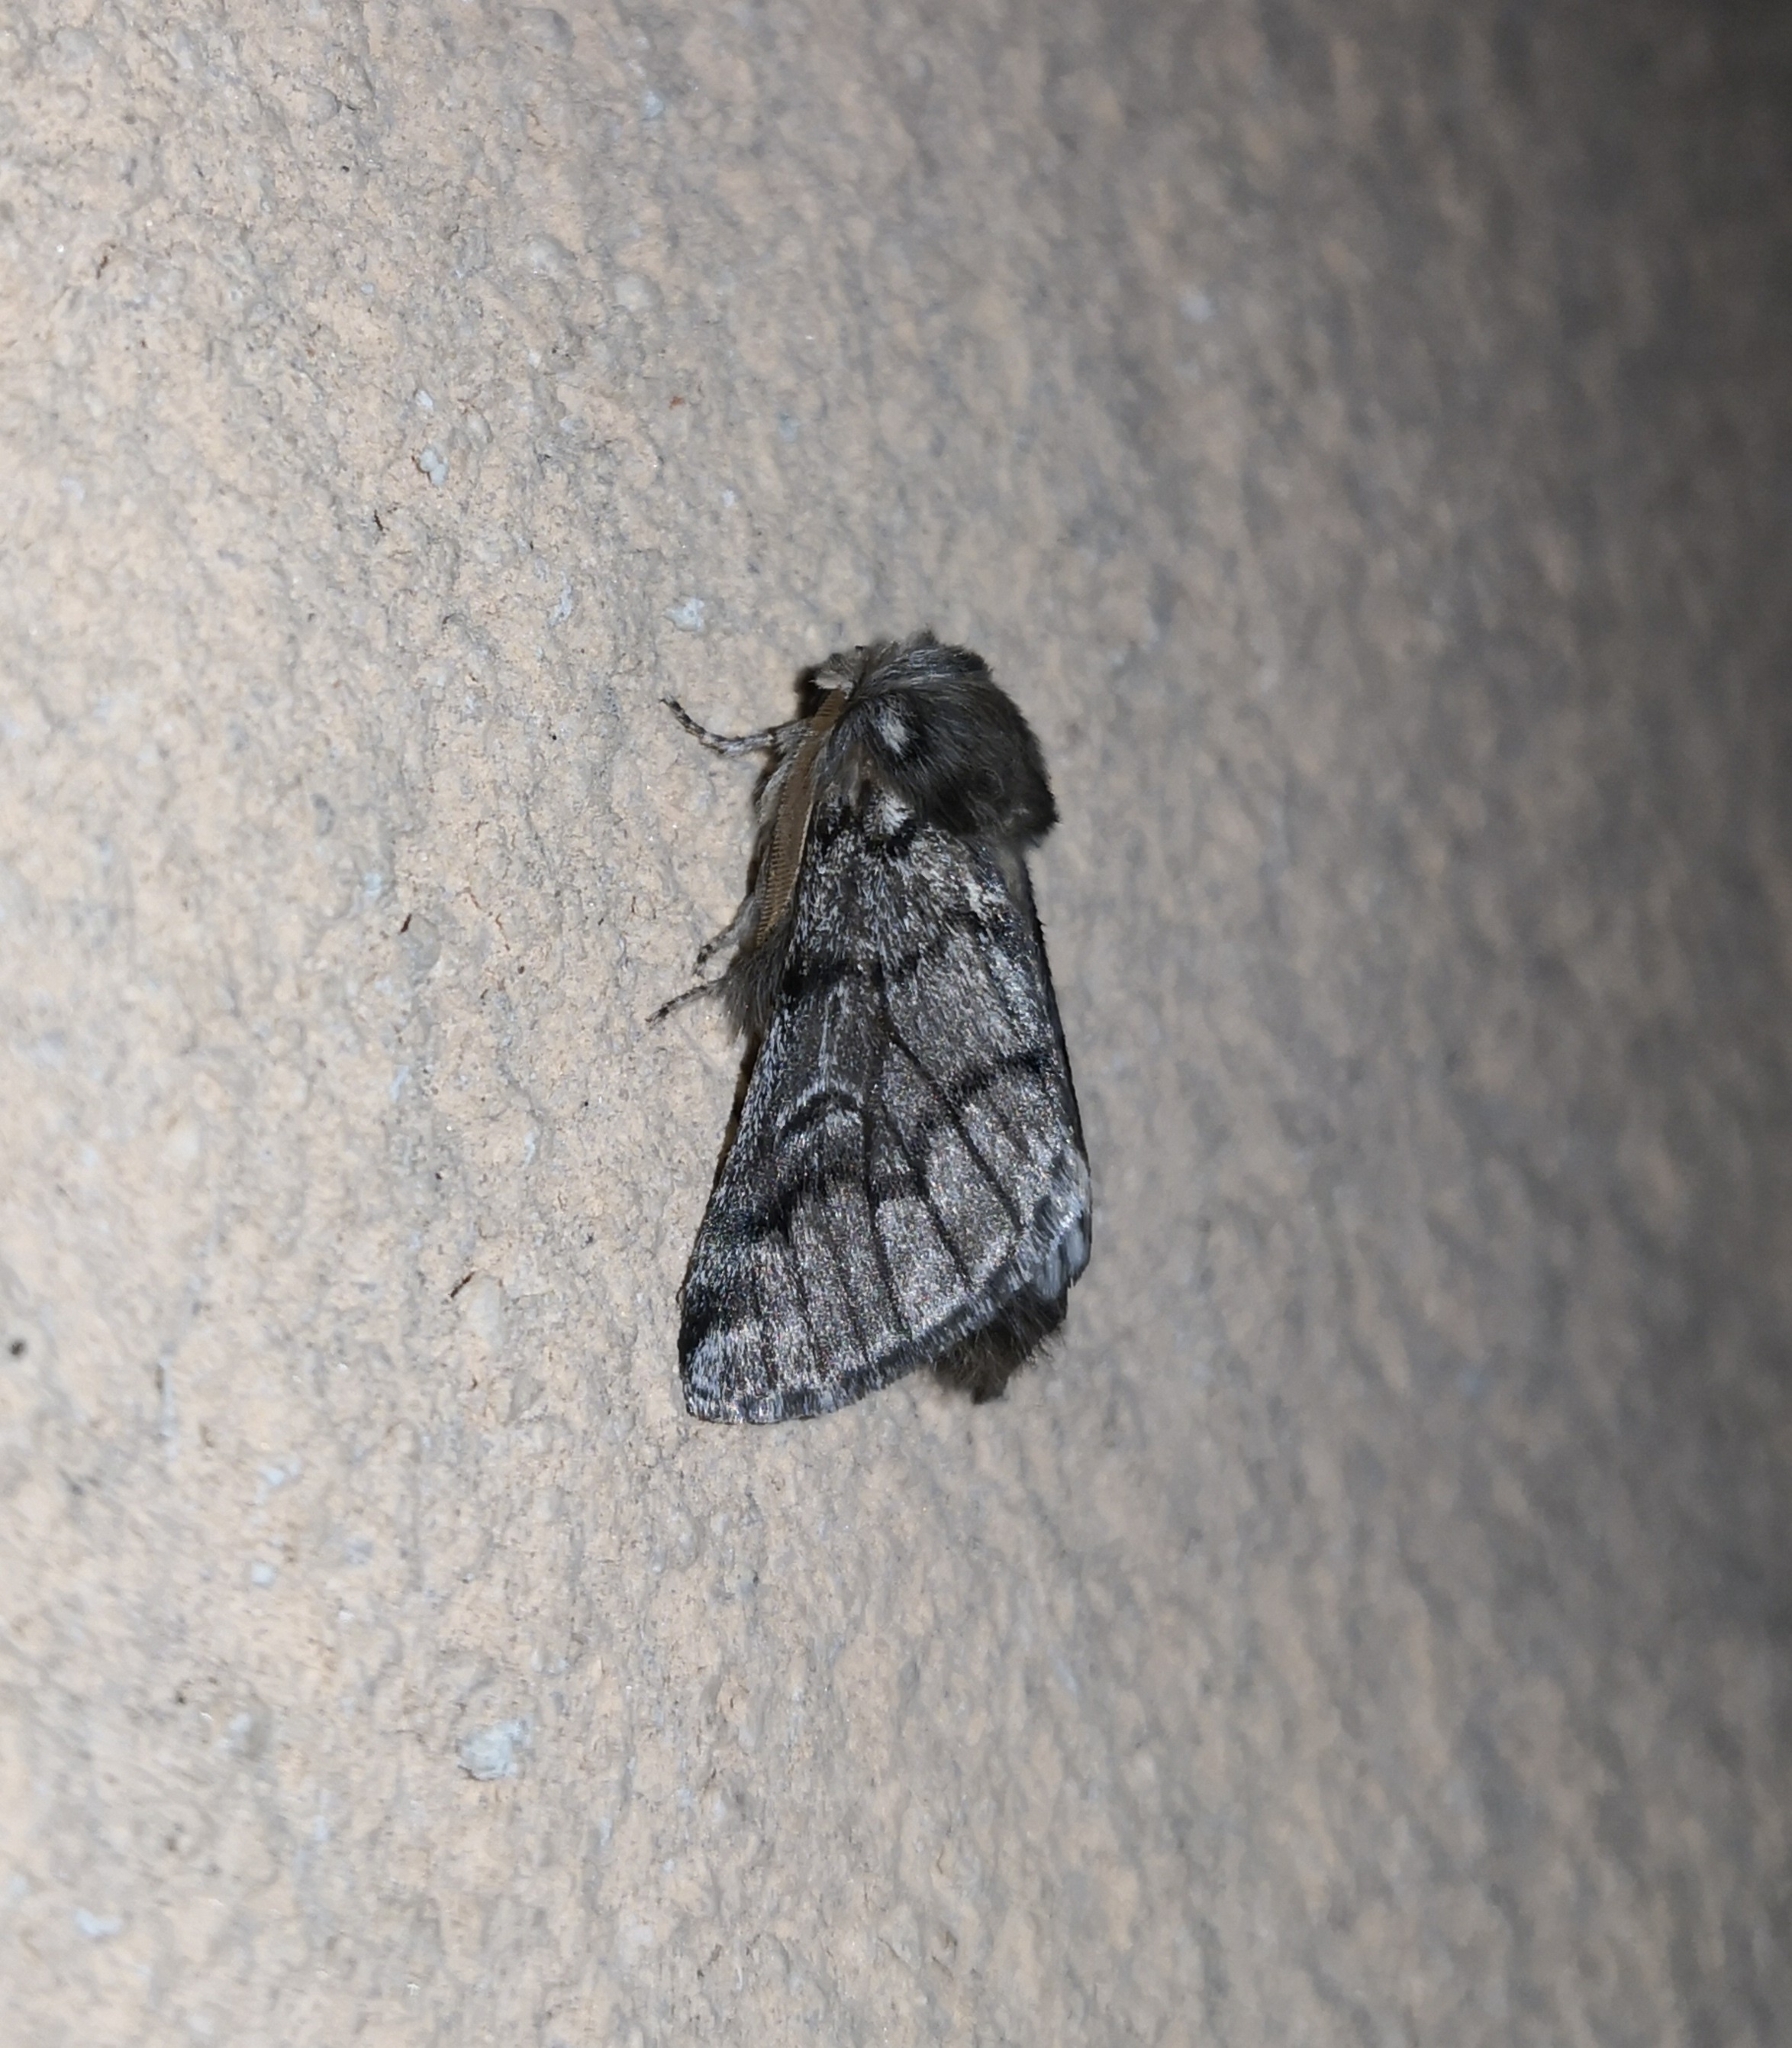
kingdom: Animalia
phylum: Arthropoda
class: Insecta
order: Lepidoptera
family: Notodontidae
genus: Thaumetopoea
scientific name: Thaumetopoea pityocampa
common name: Pine processionary
